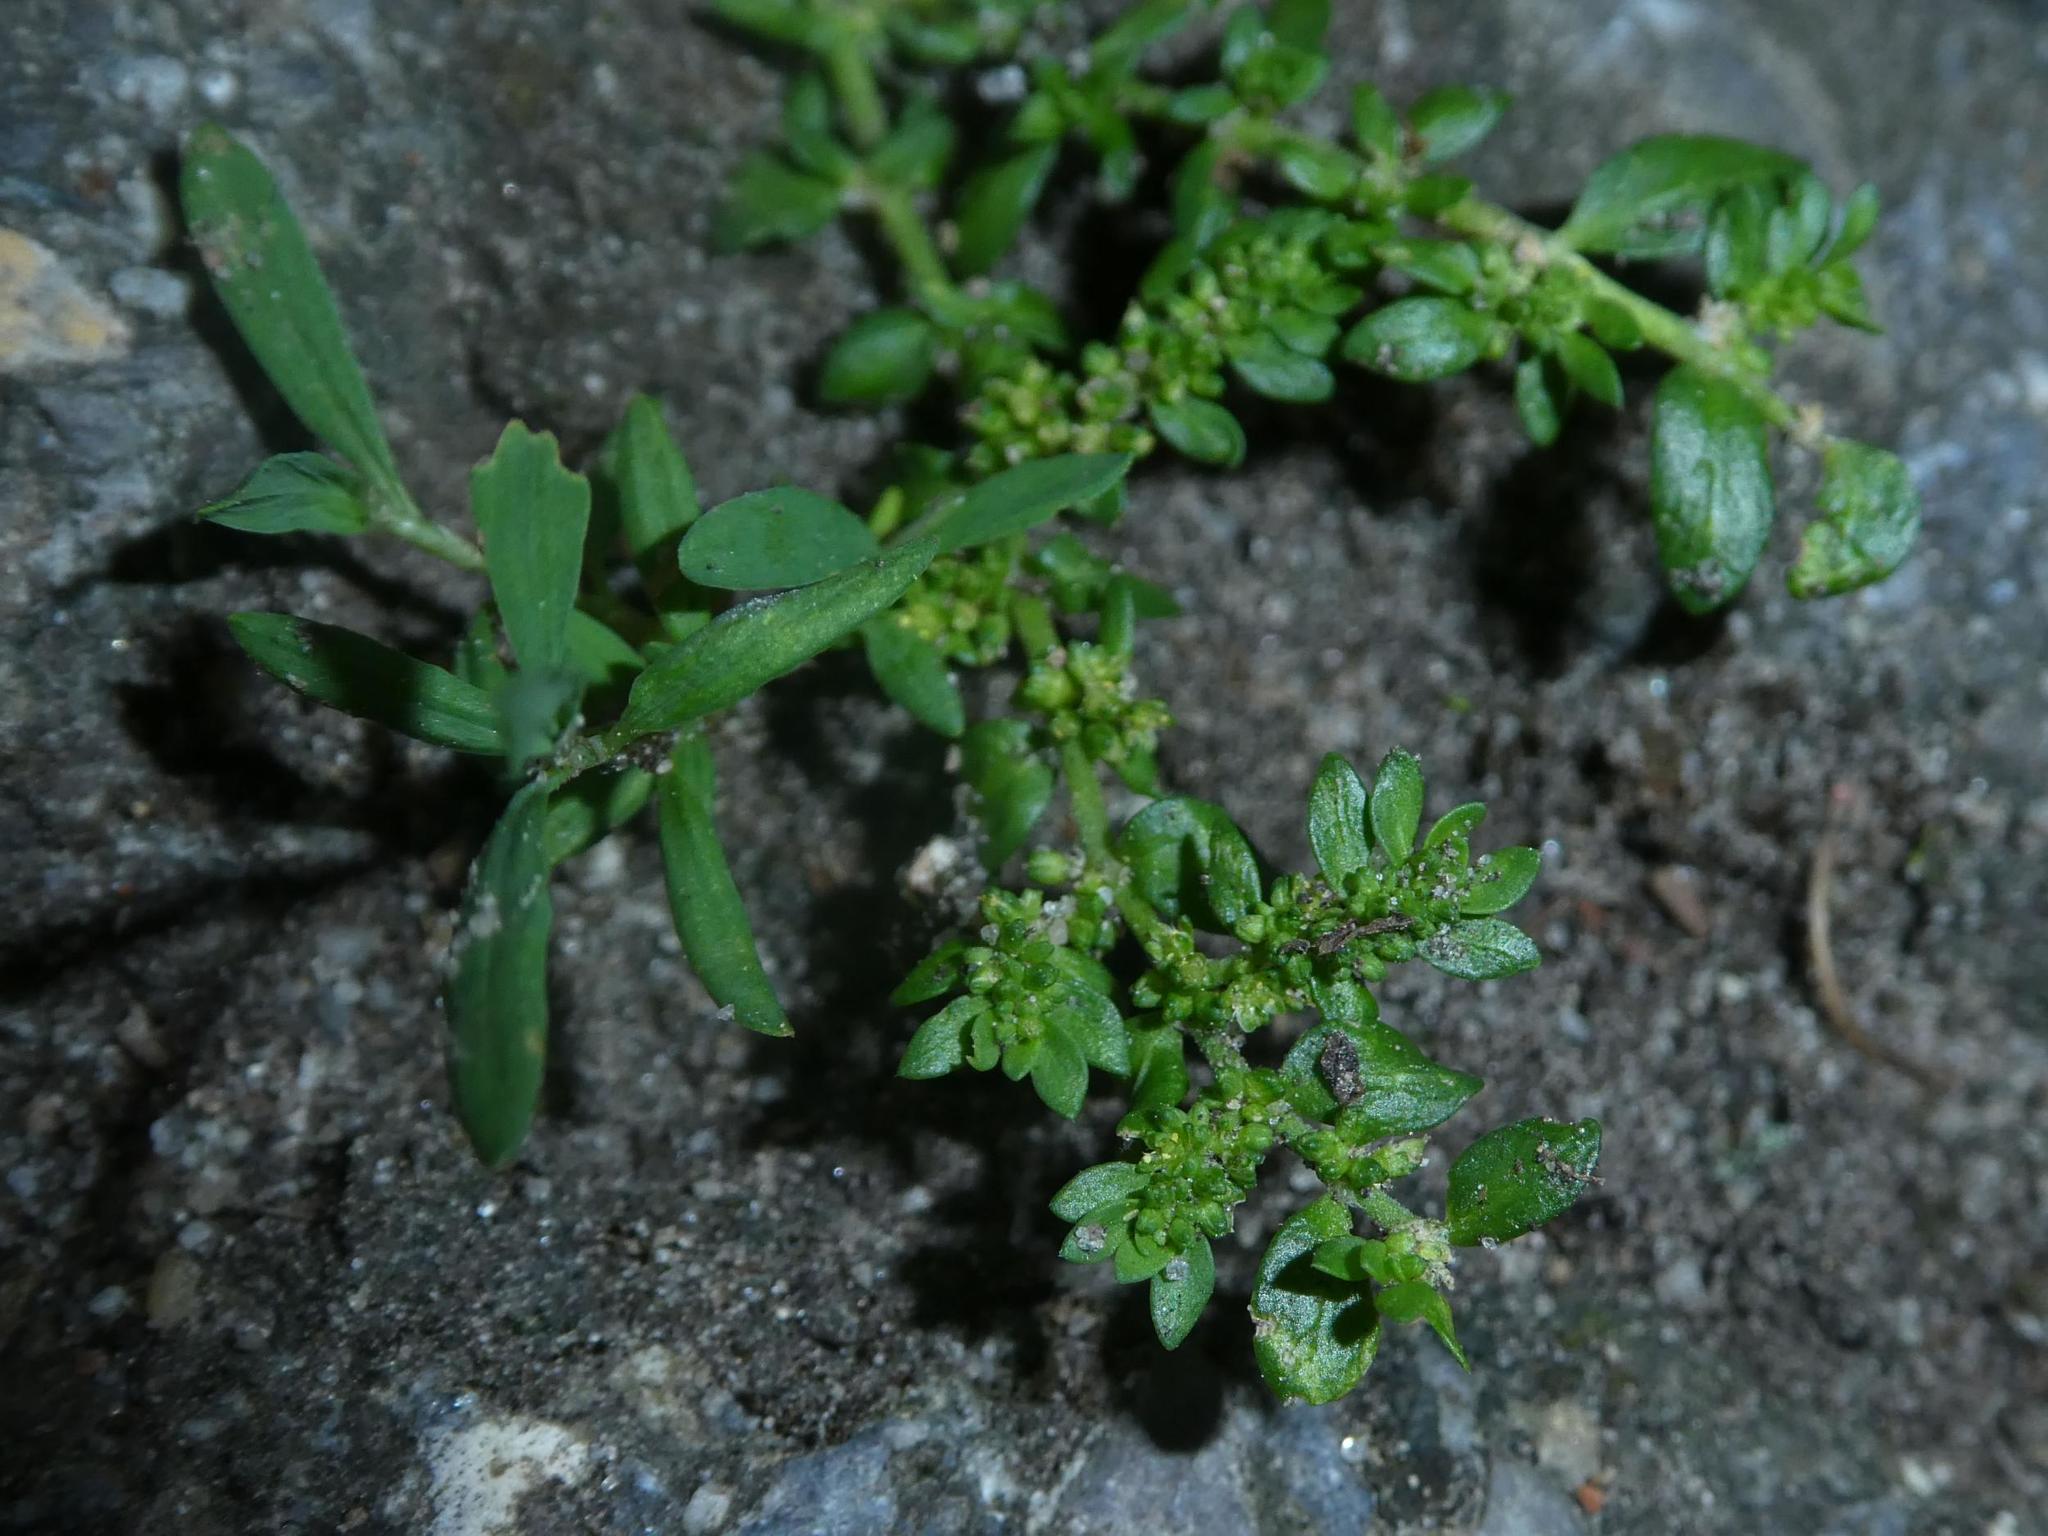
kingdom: Plantae
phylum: Tracheophyta
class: Magnoliopsida
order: Caryophyllales
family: Caryophyllaceae
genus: Herniaria
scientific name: Herniaria glabra
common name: Smooth rupturewort
